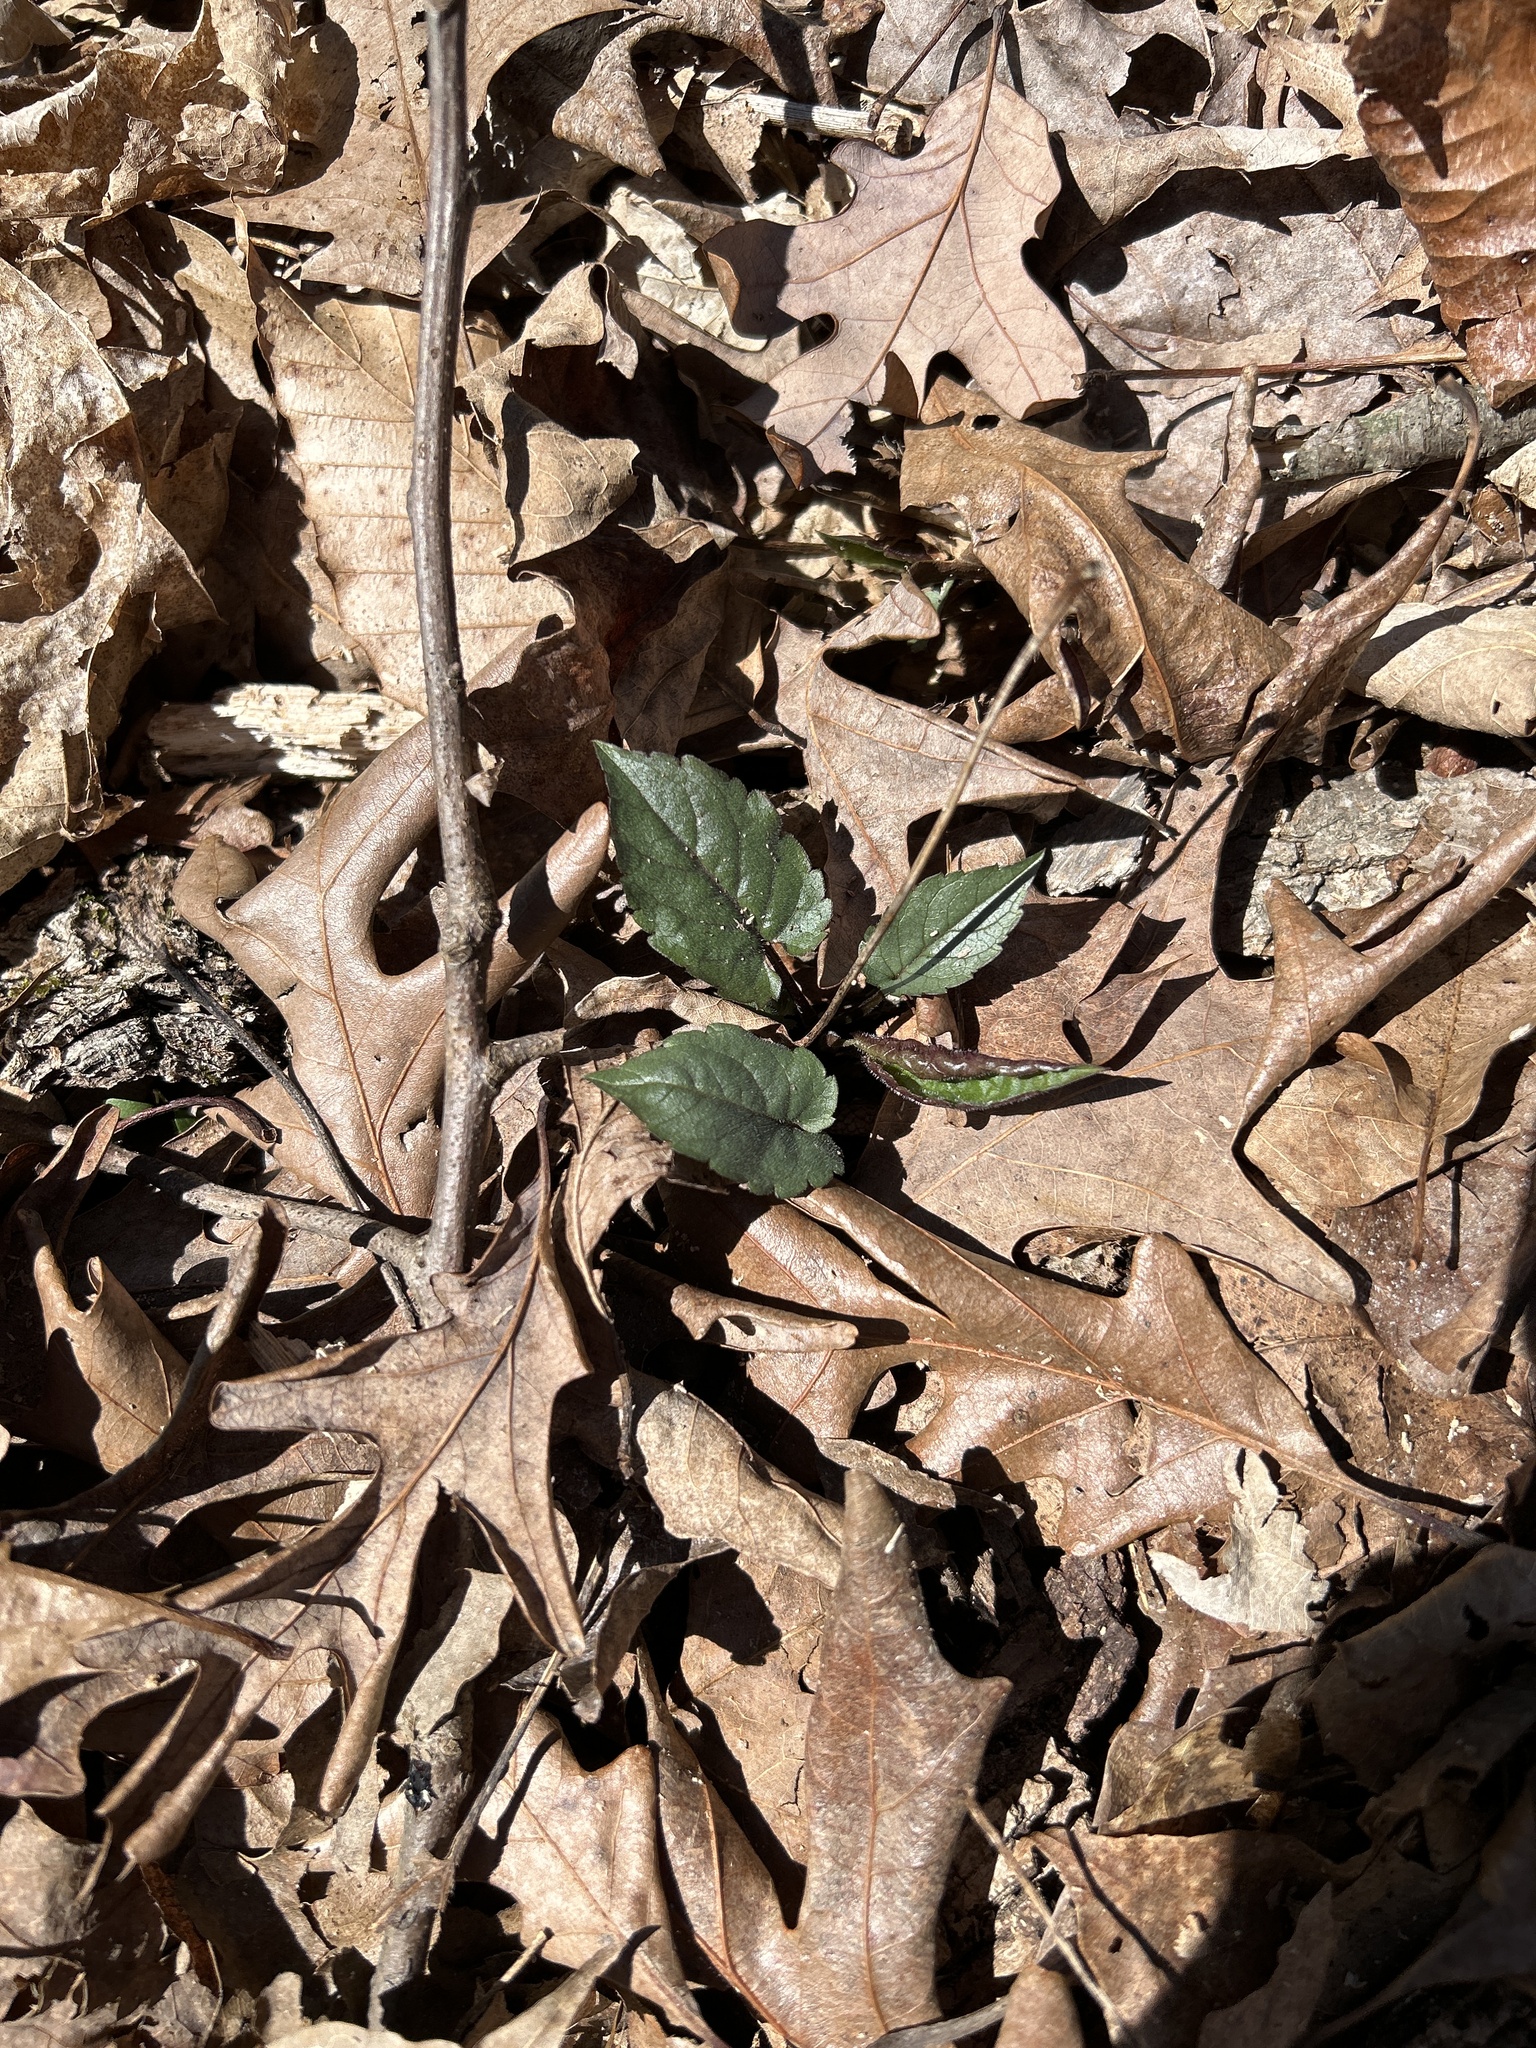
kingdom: Plantae
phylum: Tracheophyta
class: Magnoliopsida
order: Asterales
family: Asteraceae
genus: Eurybia
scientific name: Eurybia divaricata
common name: White wood aster
